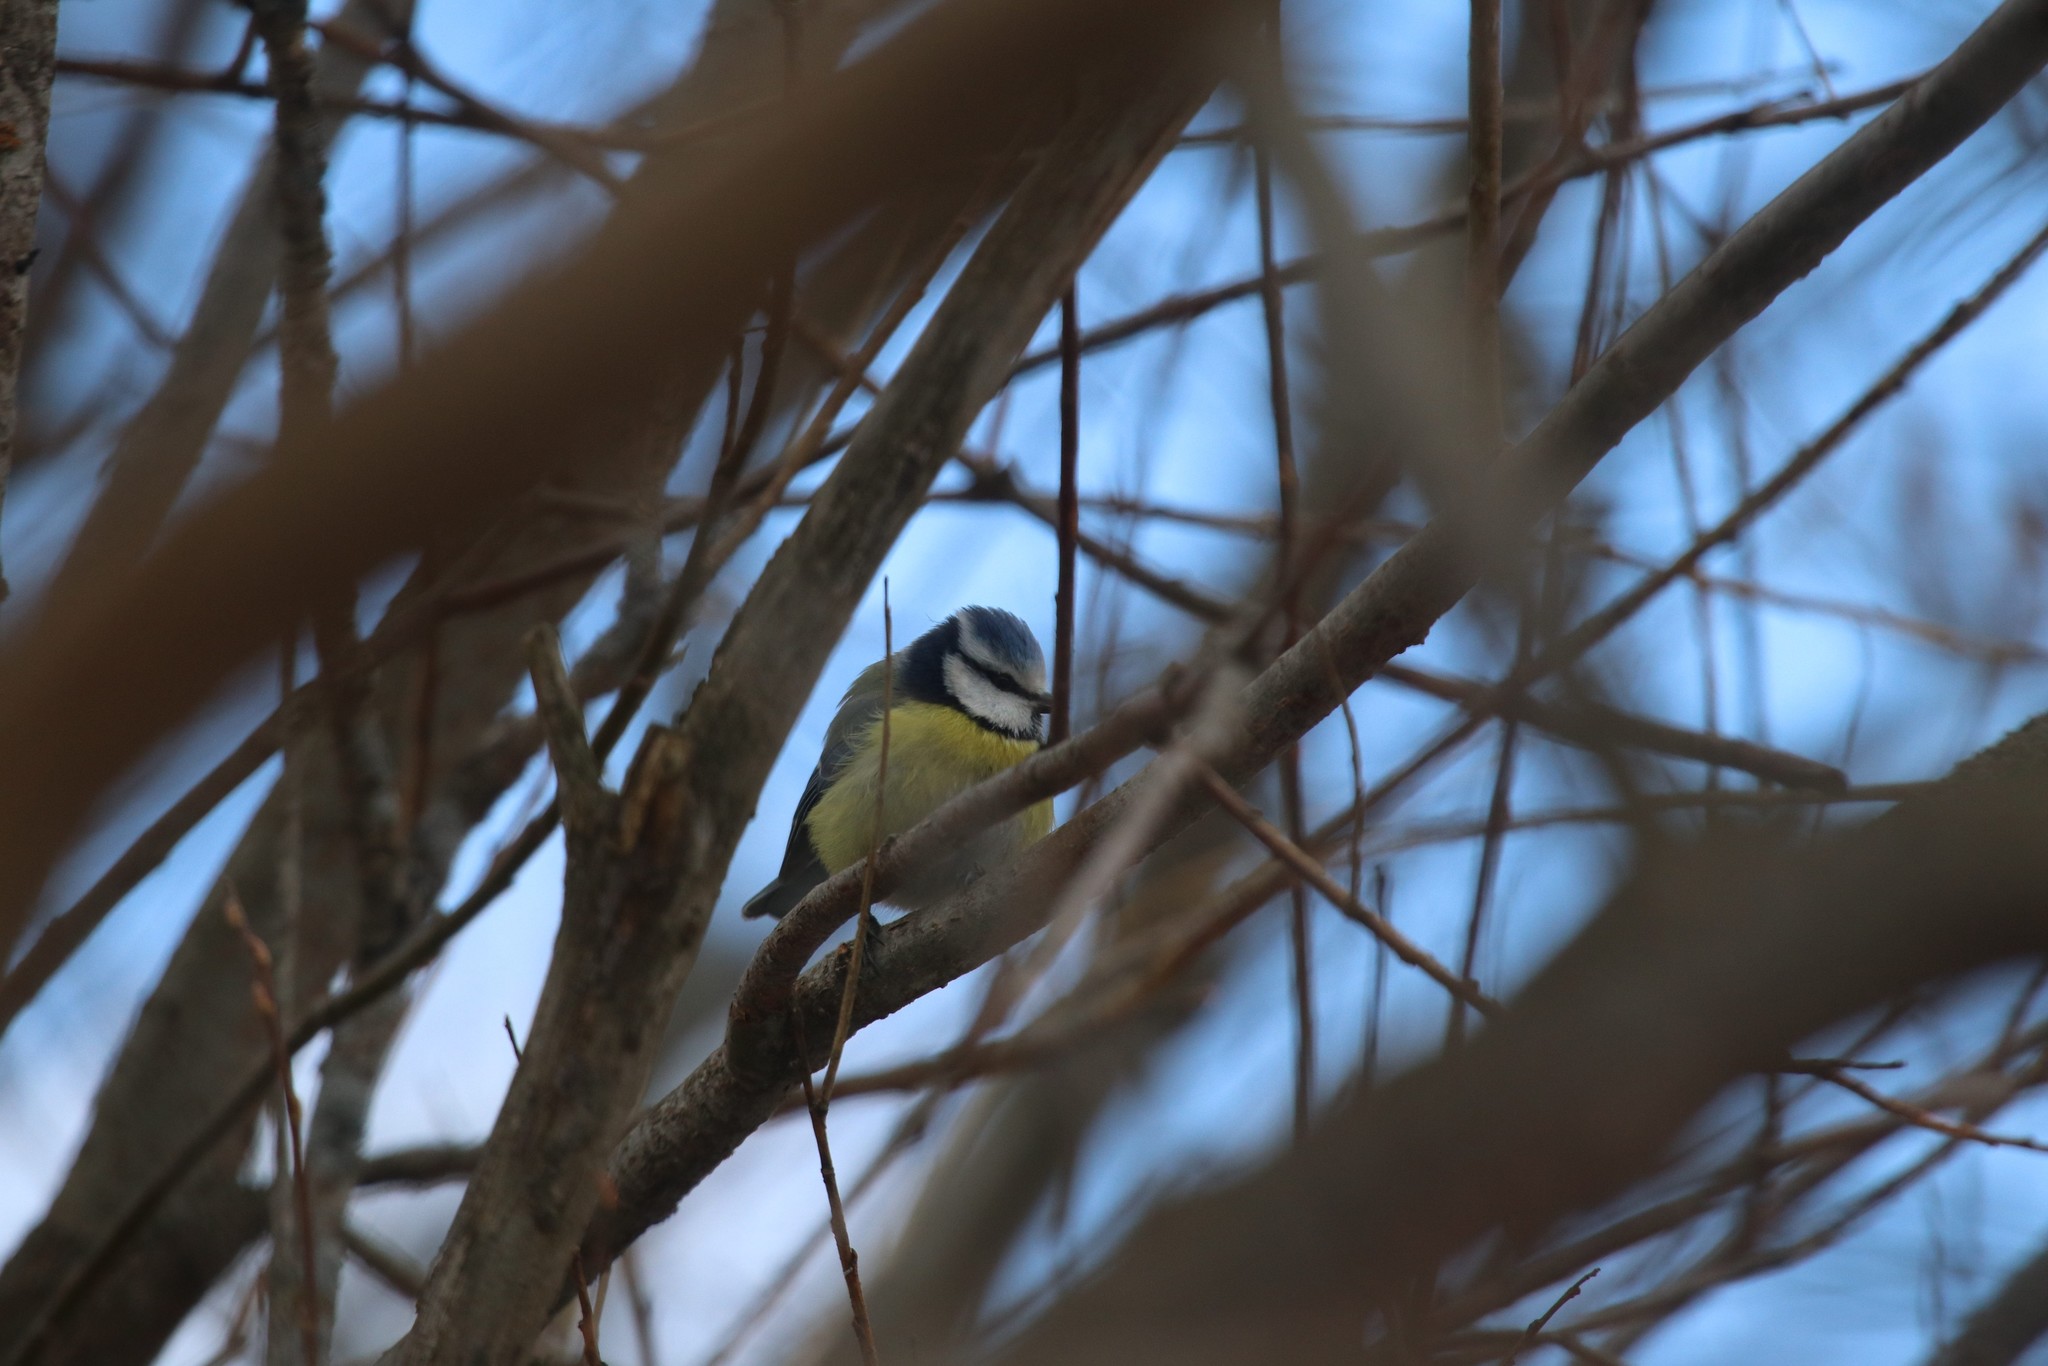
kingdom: Animalia
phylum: Chordata
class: Aves
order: Passeriformes
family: Paridae
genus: Cyanistes
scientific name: Cyanistes caeruleus
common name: Eurasian blue tit
